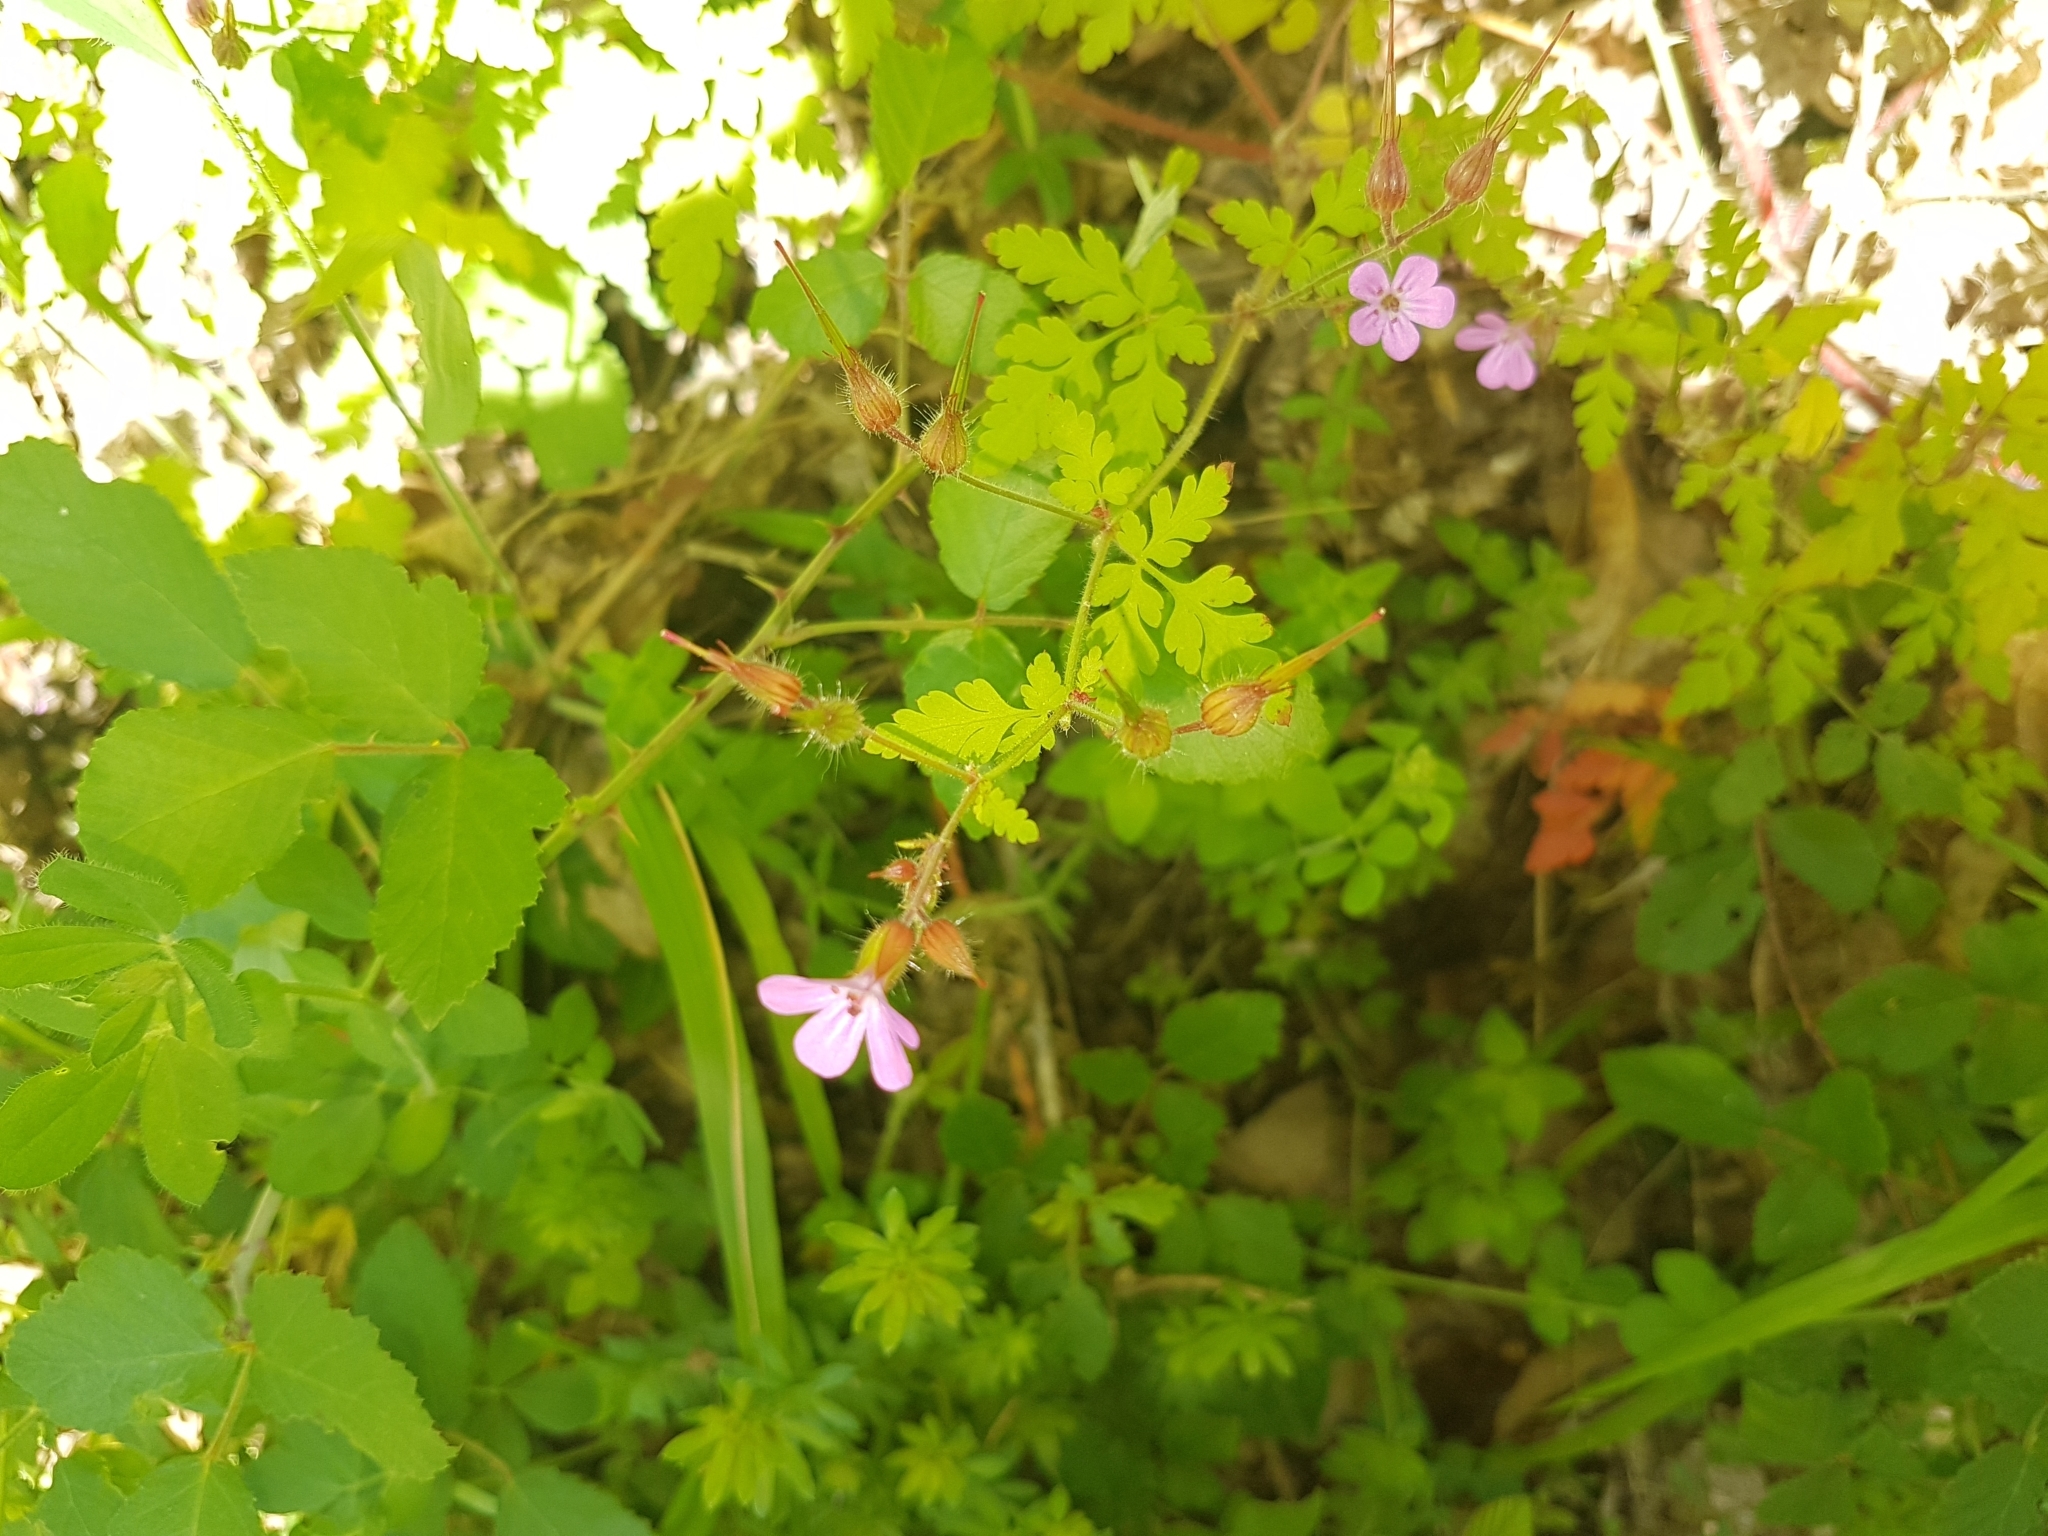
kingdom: Plantae
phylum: Tracheophyta
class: Magnoliopsida
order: Geraniales
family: Geraniaceae
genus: Geranium
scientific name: Geranium robertianum
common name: Herb-robert
